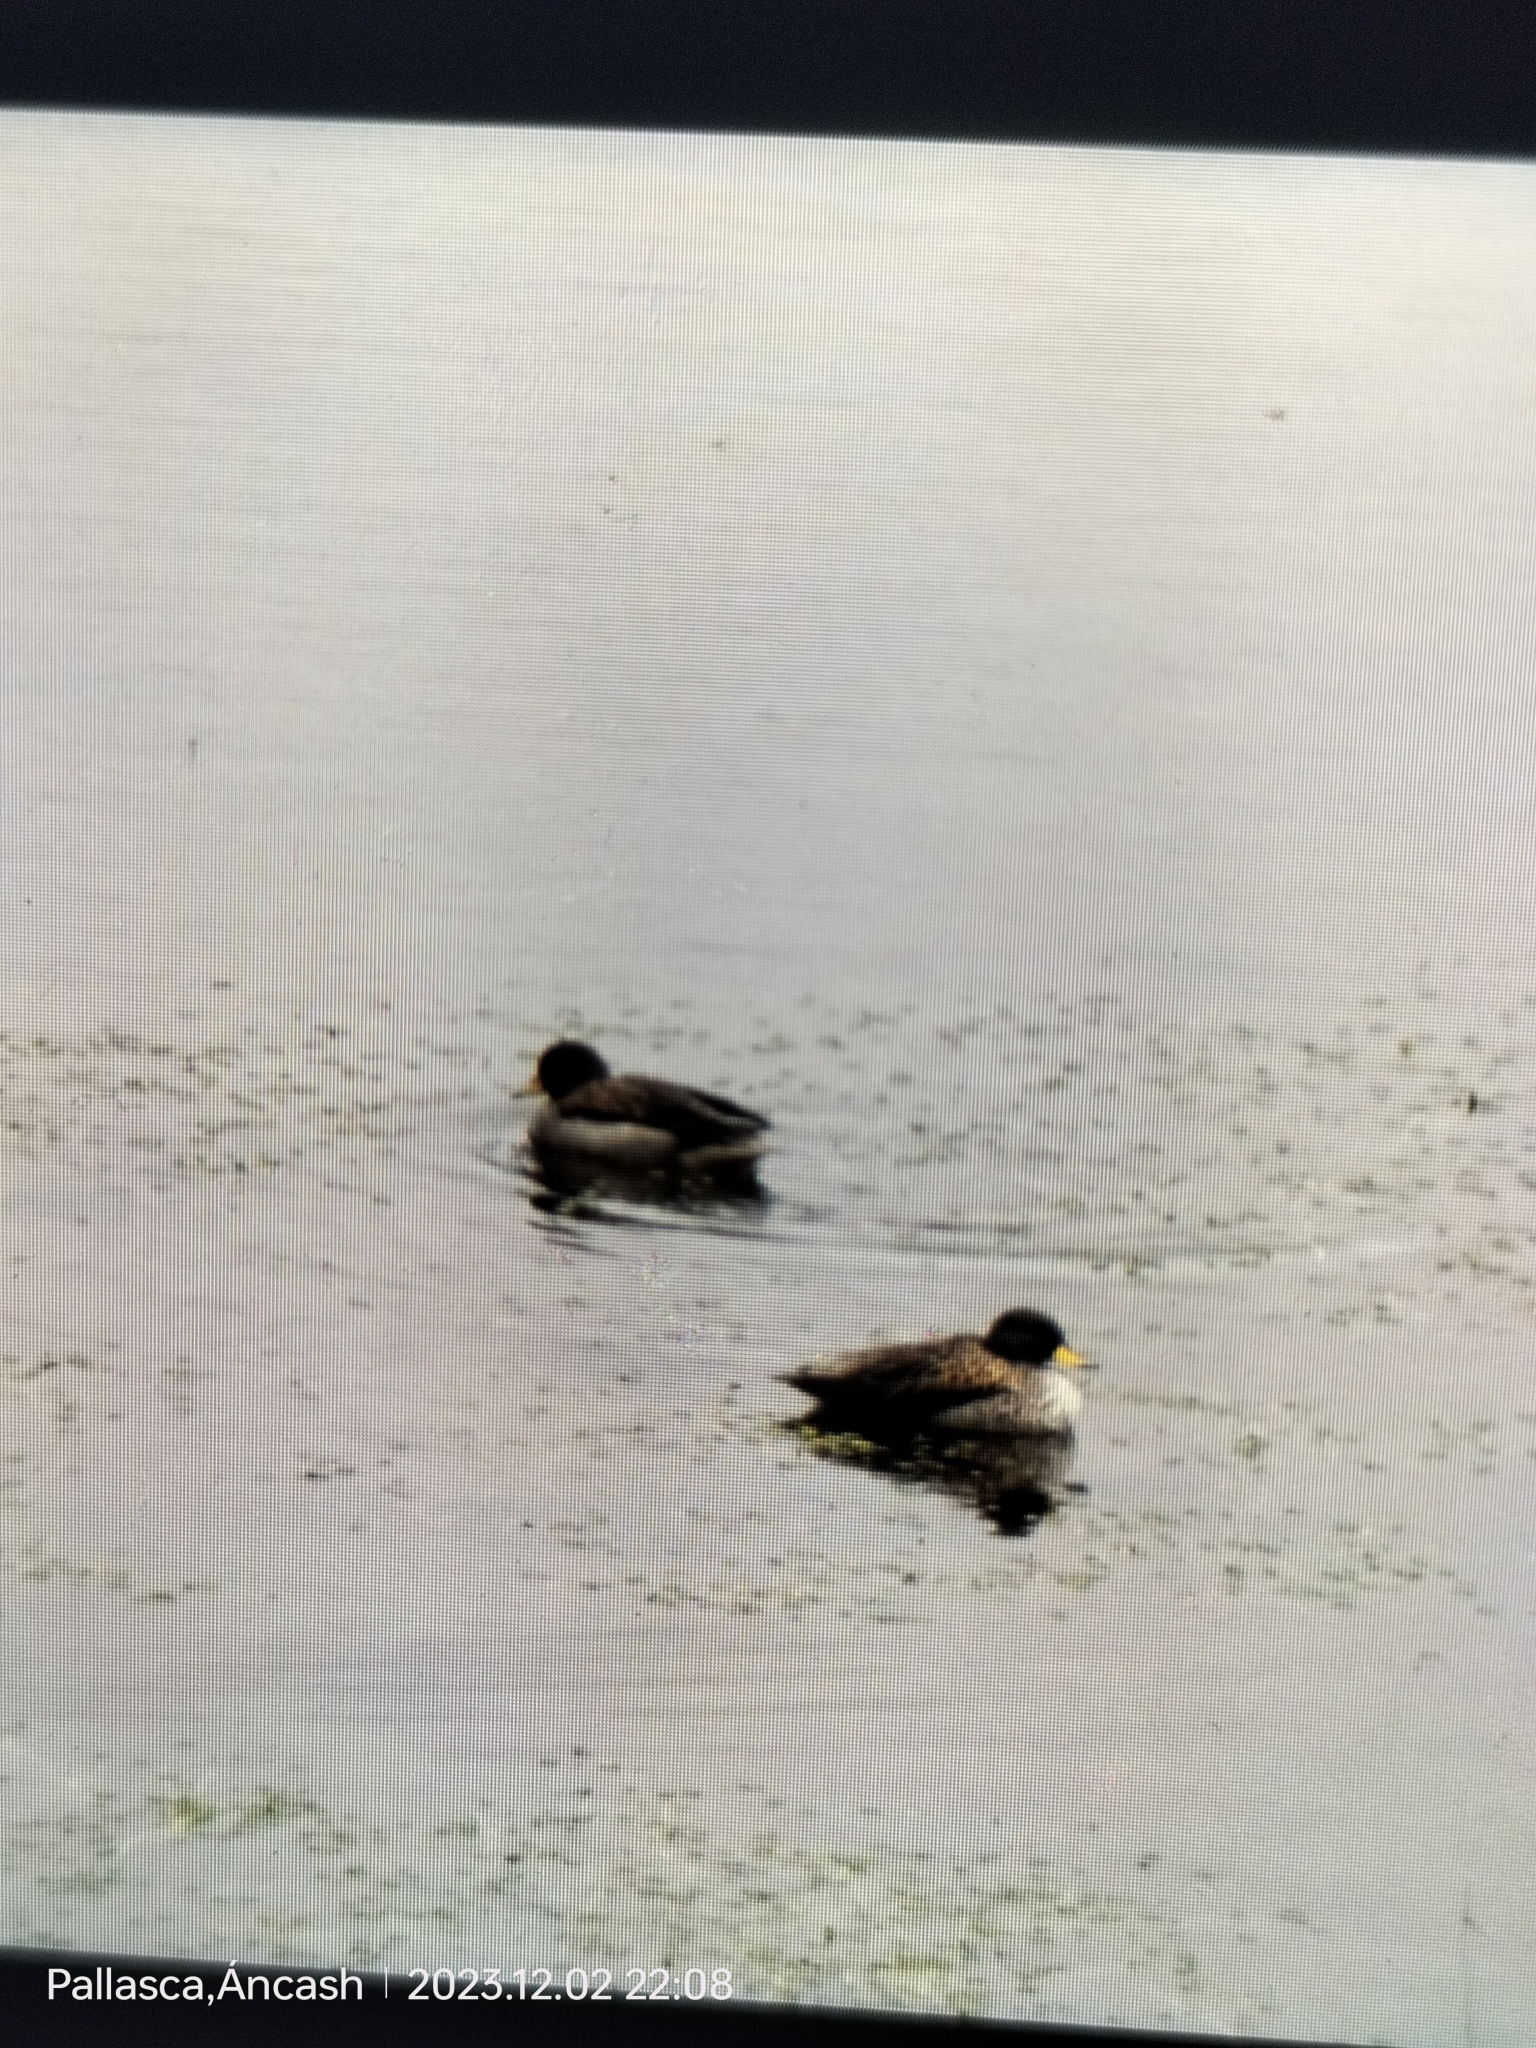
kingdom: Animalia
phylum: Chordata
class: Aves
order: Anseriformes
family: Anatidae
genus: Anas
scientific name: Anas flavirostris
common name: Yellow-billed teal
